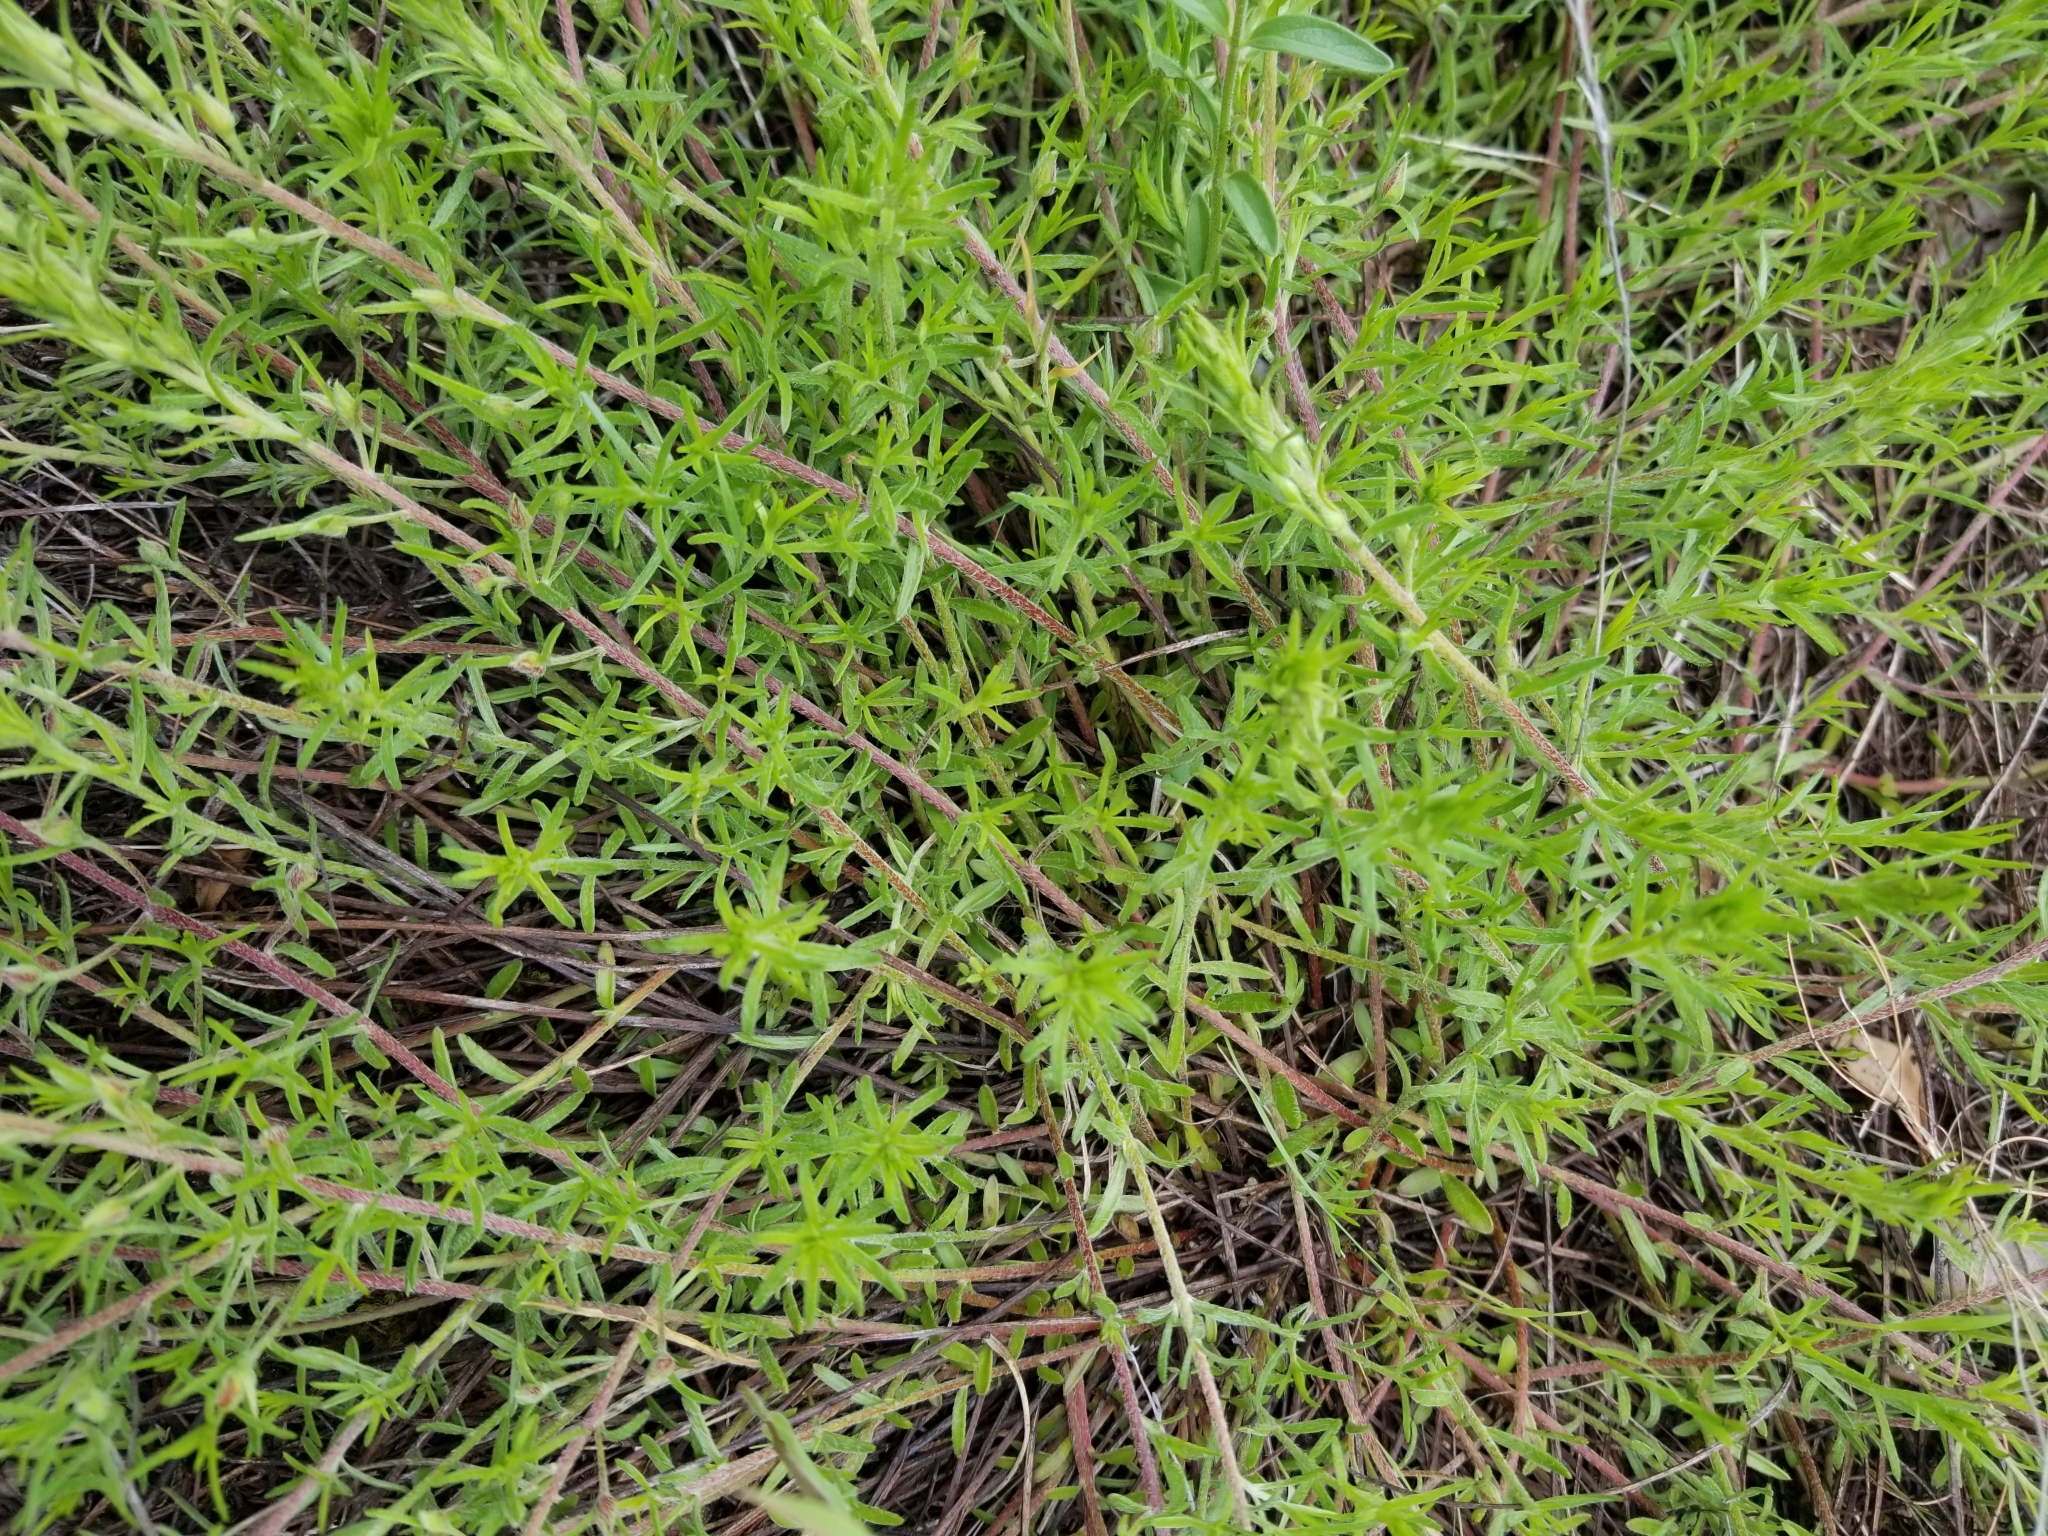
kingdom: Plantae
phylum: Tracheophyta
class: Magnoliopsida
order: Zygophyllales
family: Krameriaceae
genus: Krameria
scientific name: Krameria lanceolata
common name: Ratany
